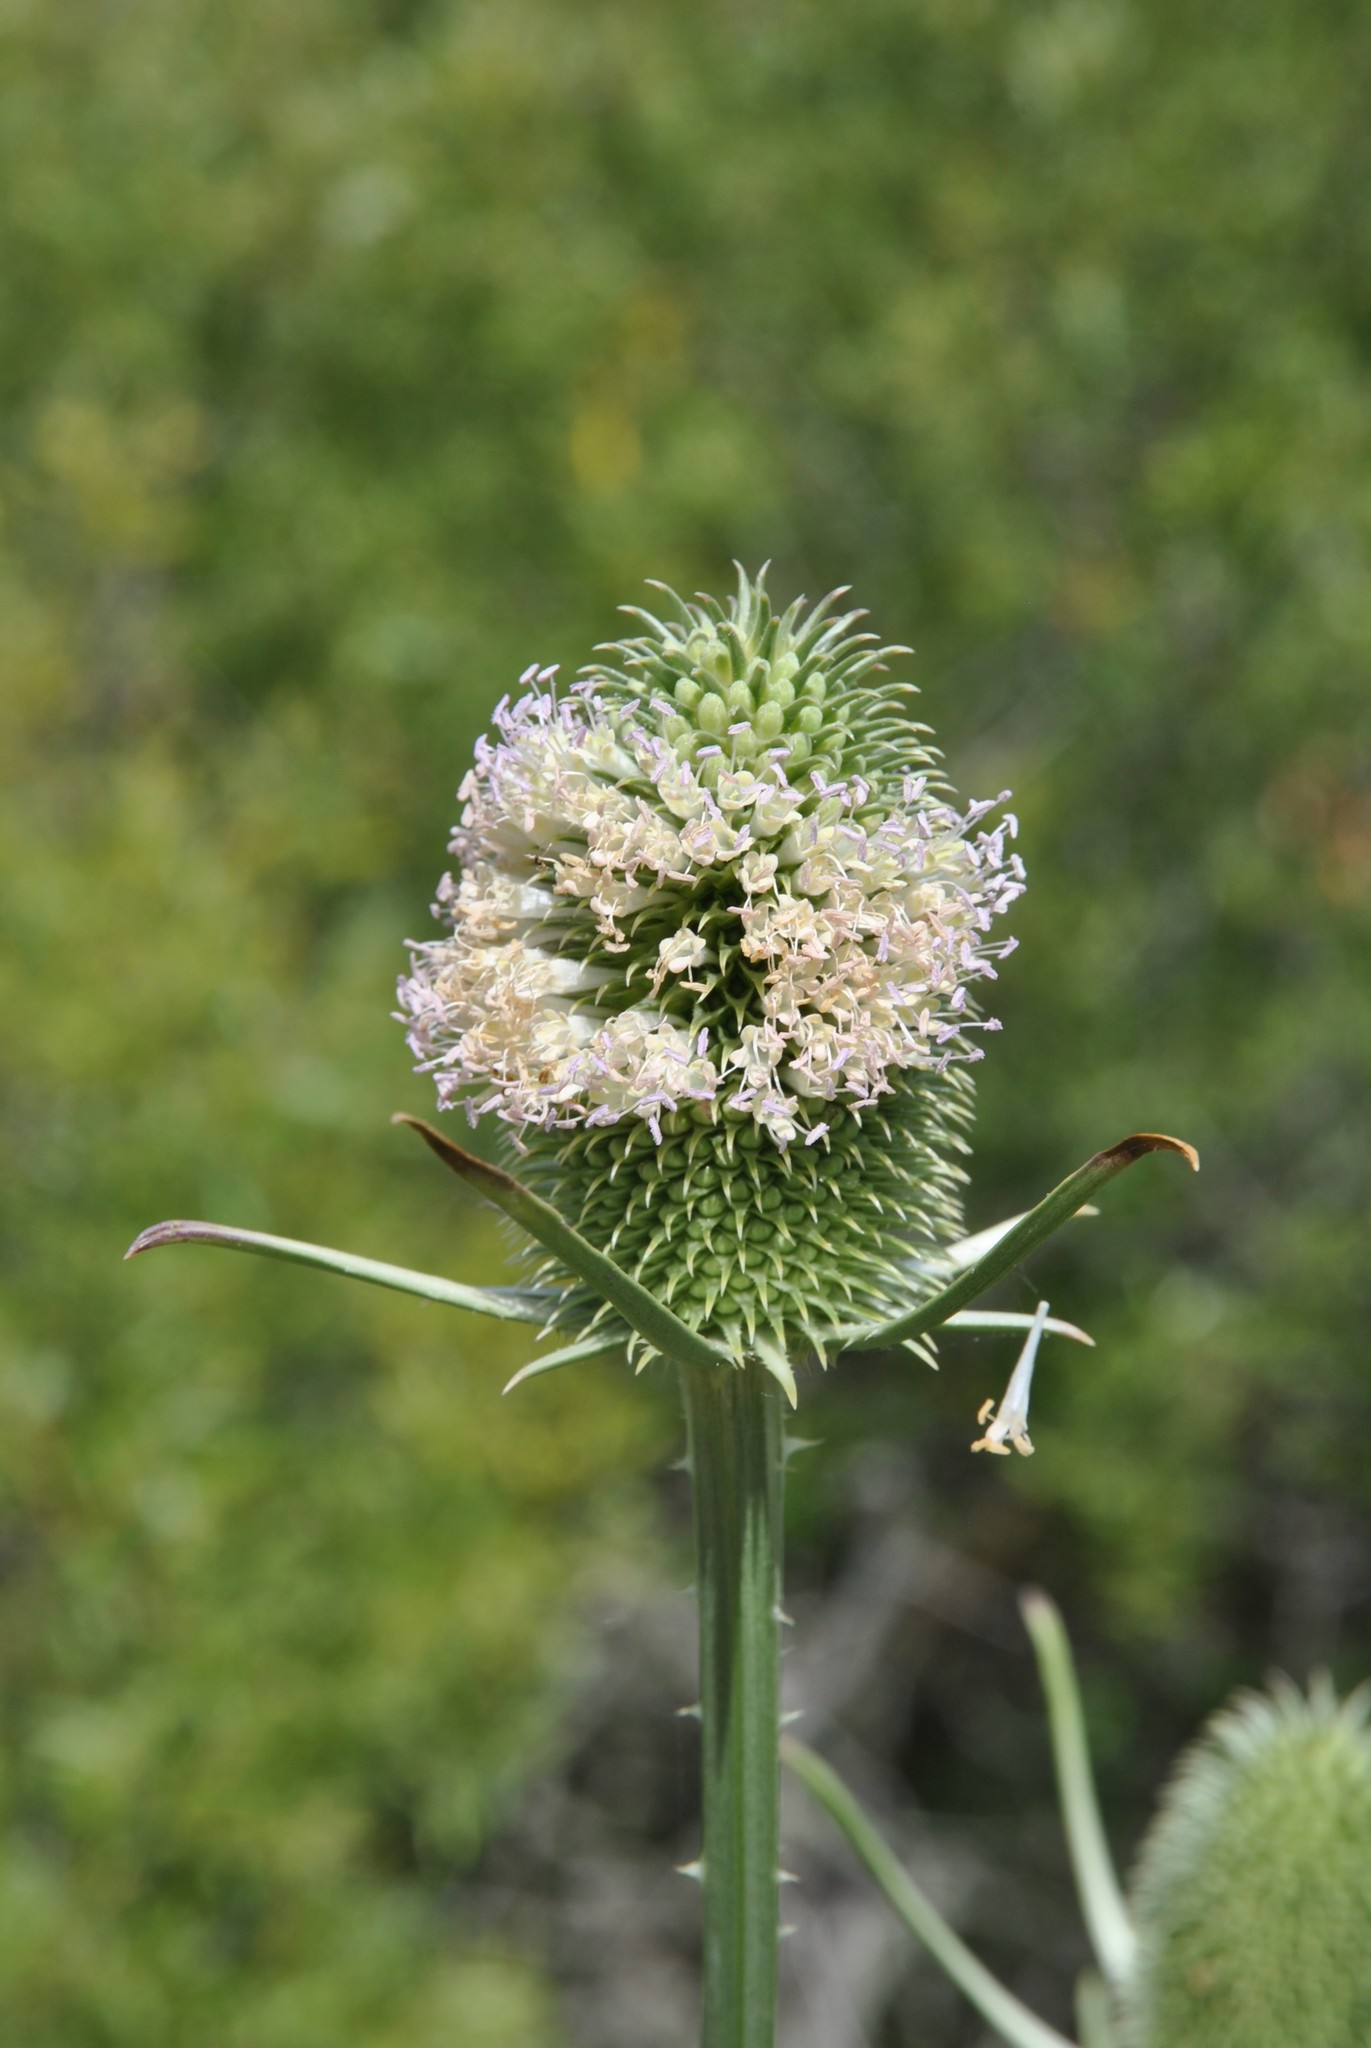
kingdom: Plantae
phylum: Tracheophyta
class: Magnoliopsida
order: Dipsacales
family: Caprifoliaceae
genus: Dipsacus
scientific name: Dipsacus sativus
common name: Fuller's teasel
